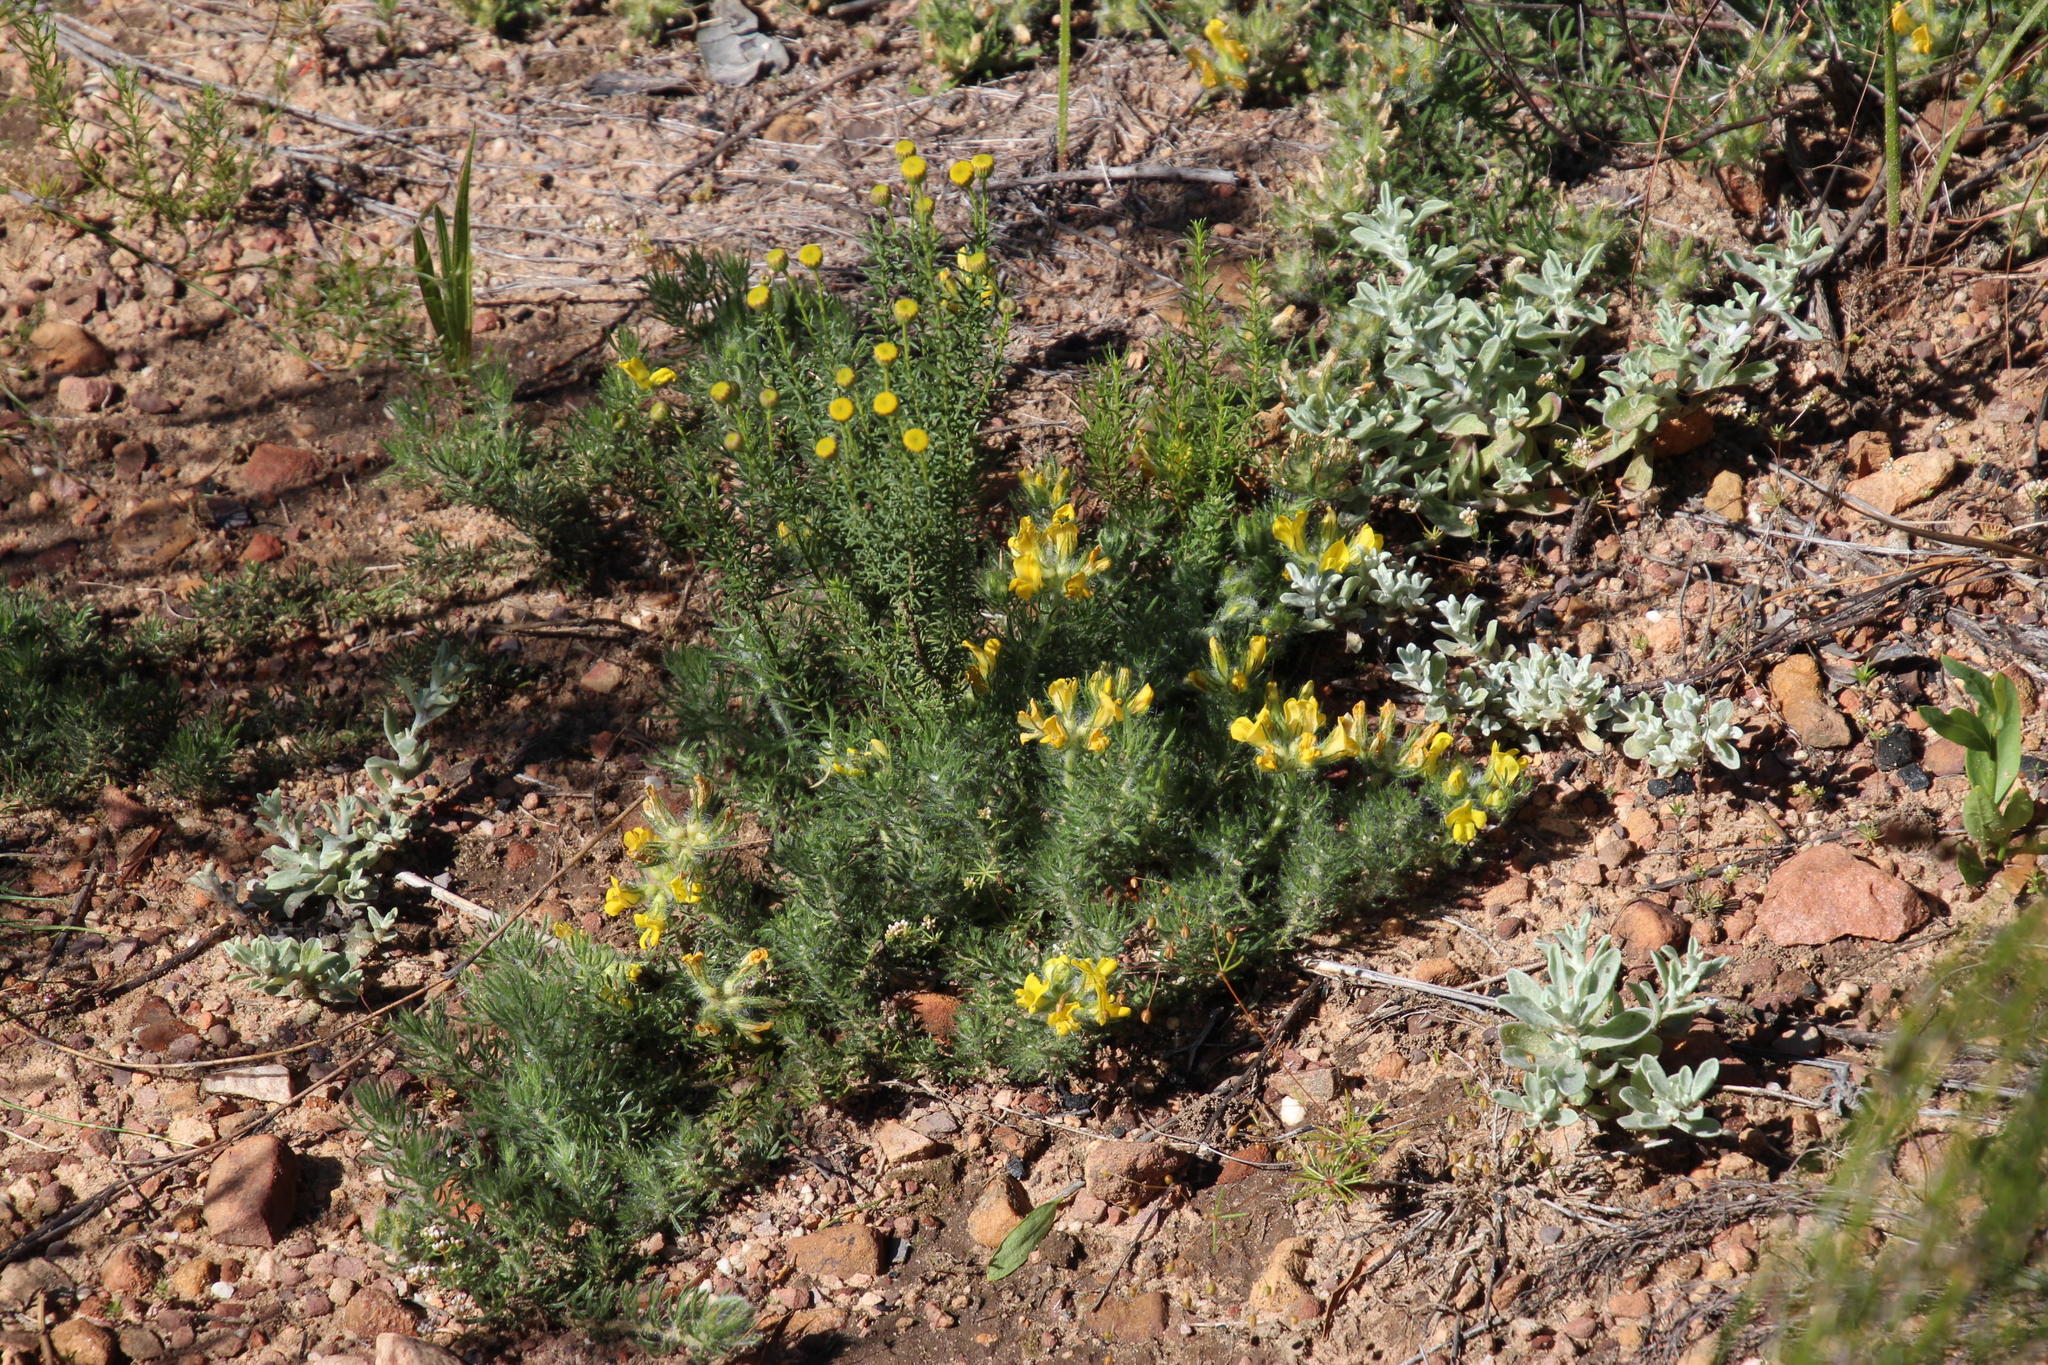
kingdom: Plantae
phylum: Tracheophyta
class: Magnoliopsida
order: Fabales
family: Fabaceae
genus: Lotononis
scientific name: Lotononis involucrata
